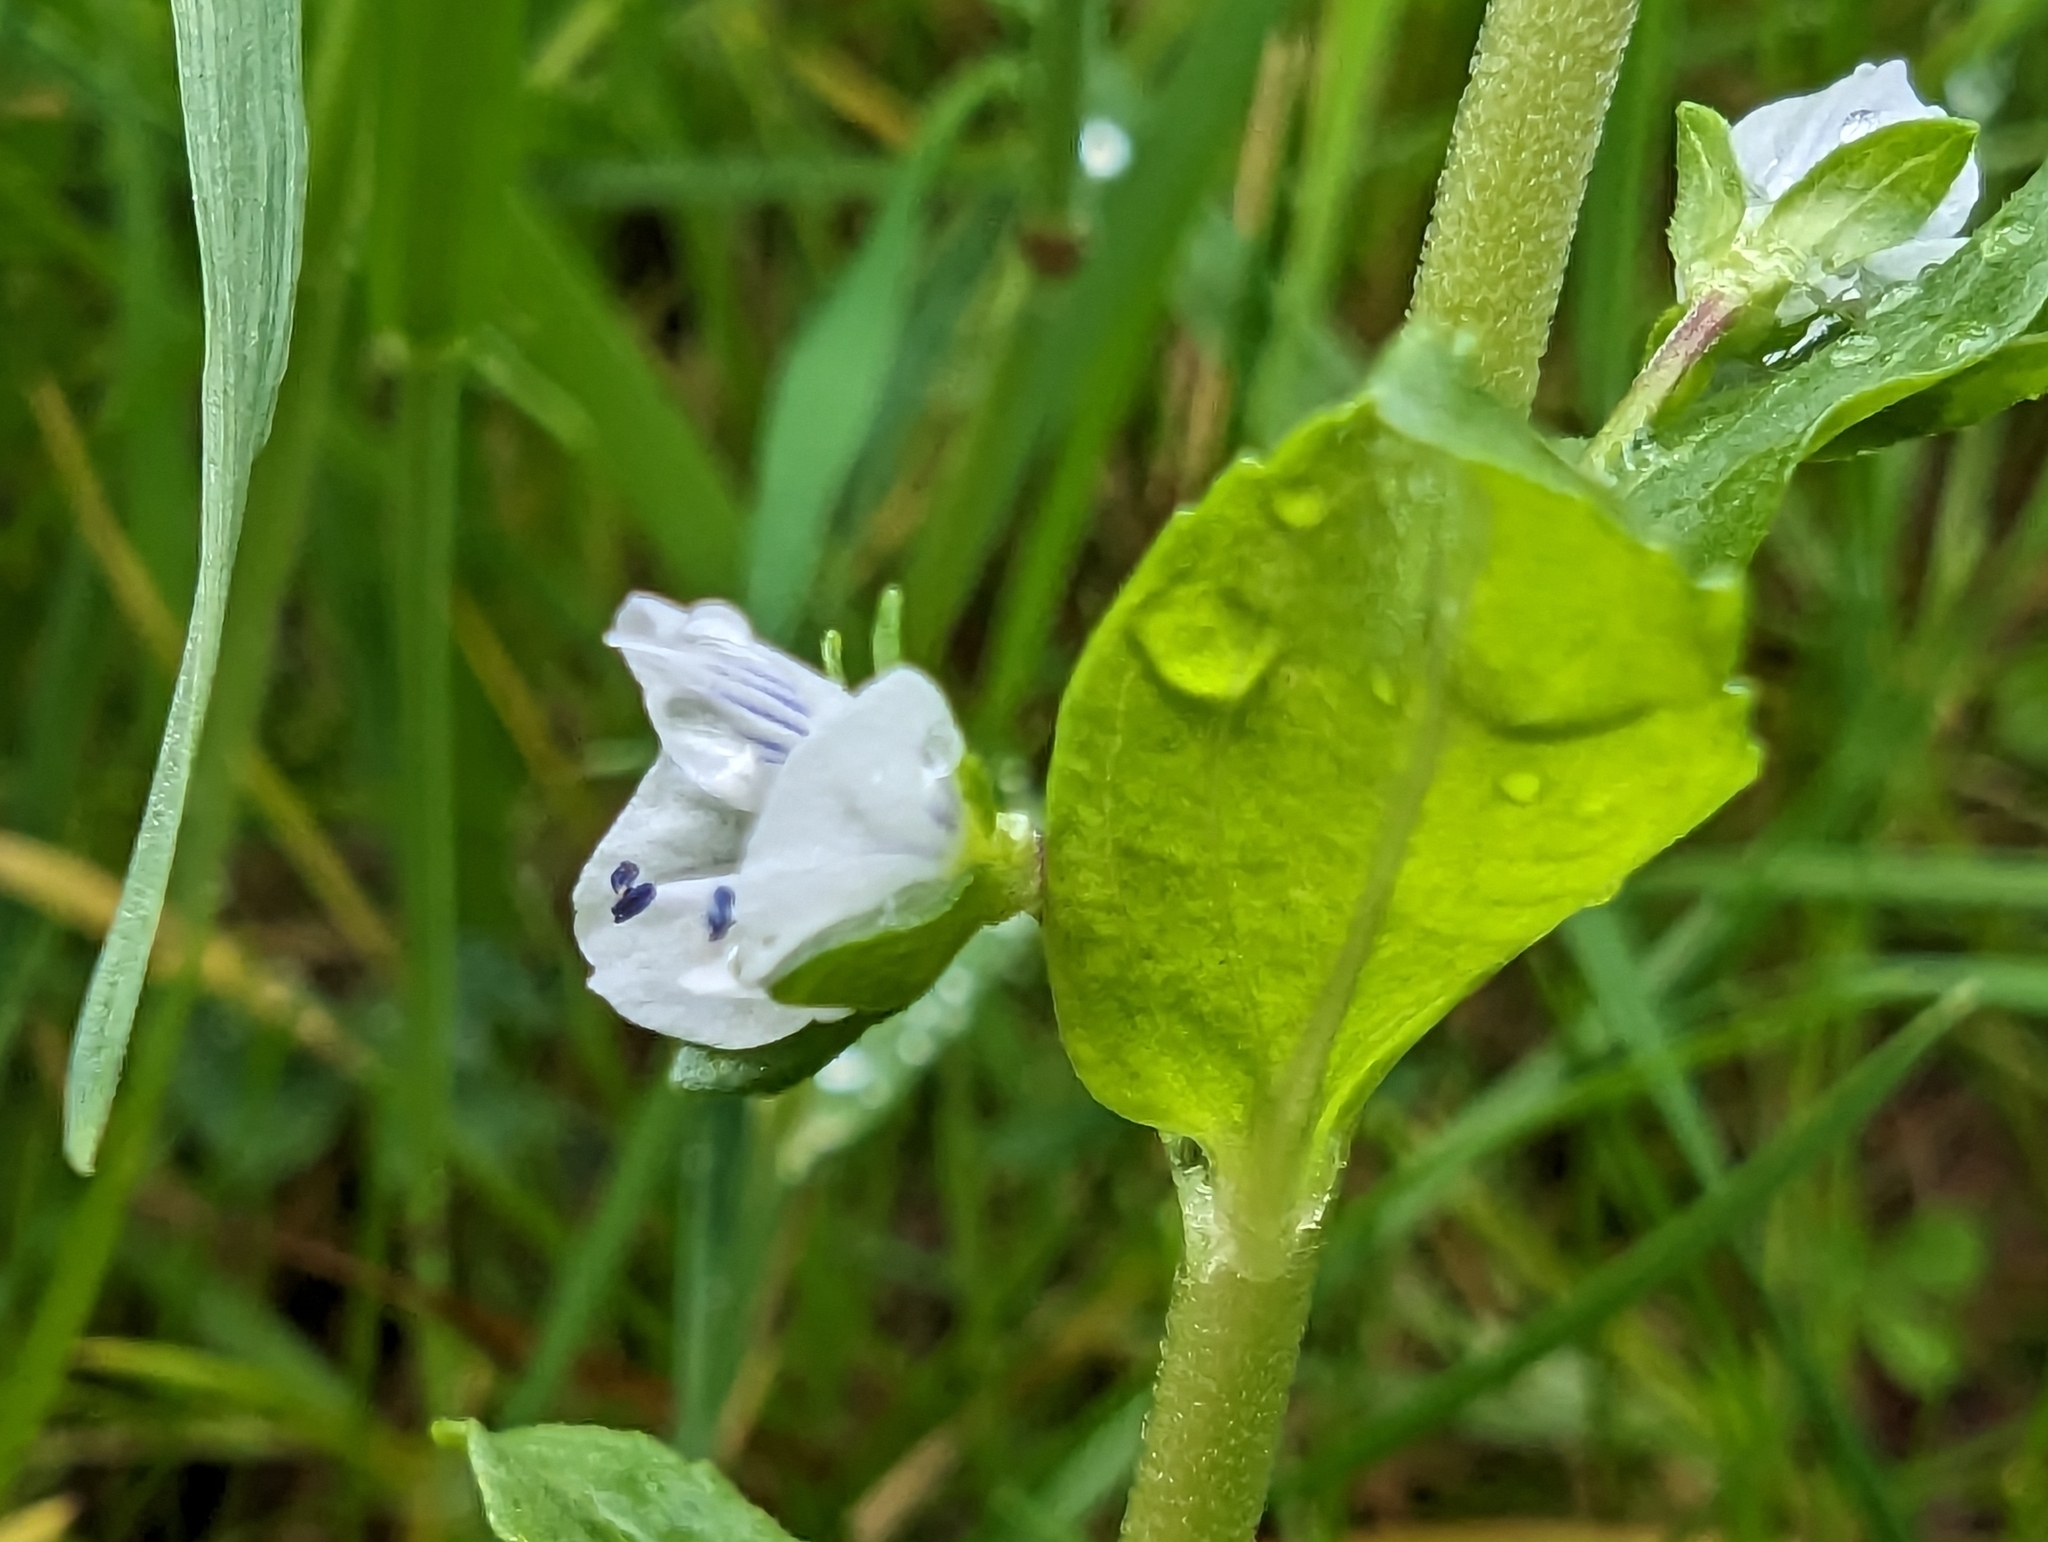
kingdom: Plantae
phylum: Tracheophyta
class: Magnoliopsida
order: Lamiales
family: Plantaginaceae
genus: Veronica
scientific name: Veronica serpyllifolia
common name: Thyme-leaved speedwell
